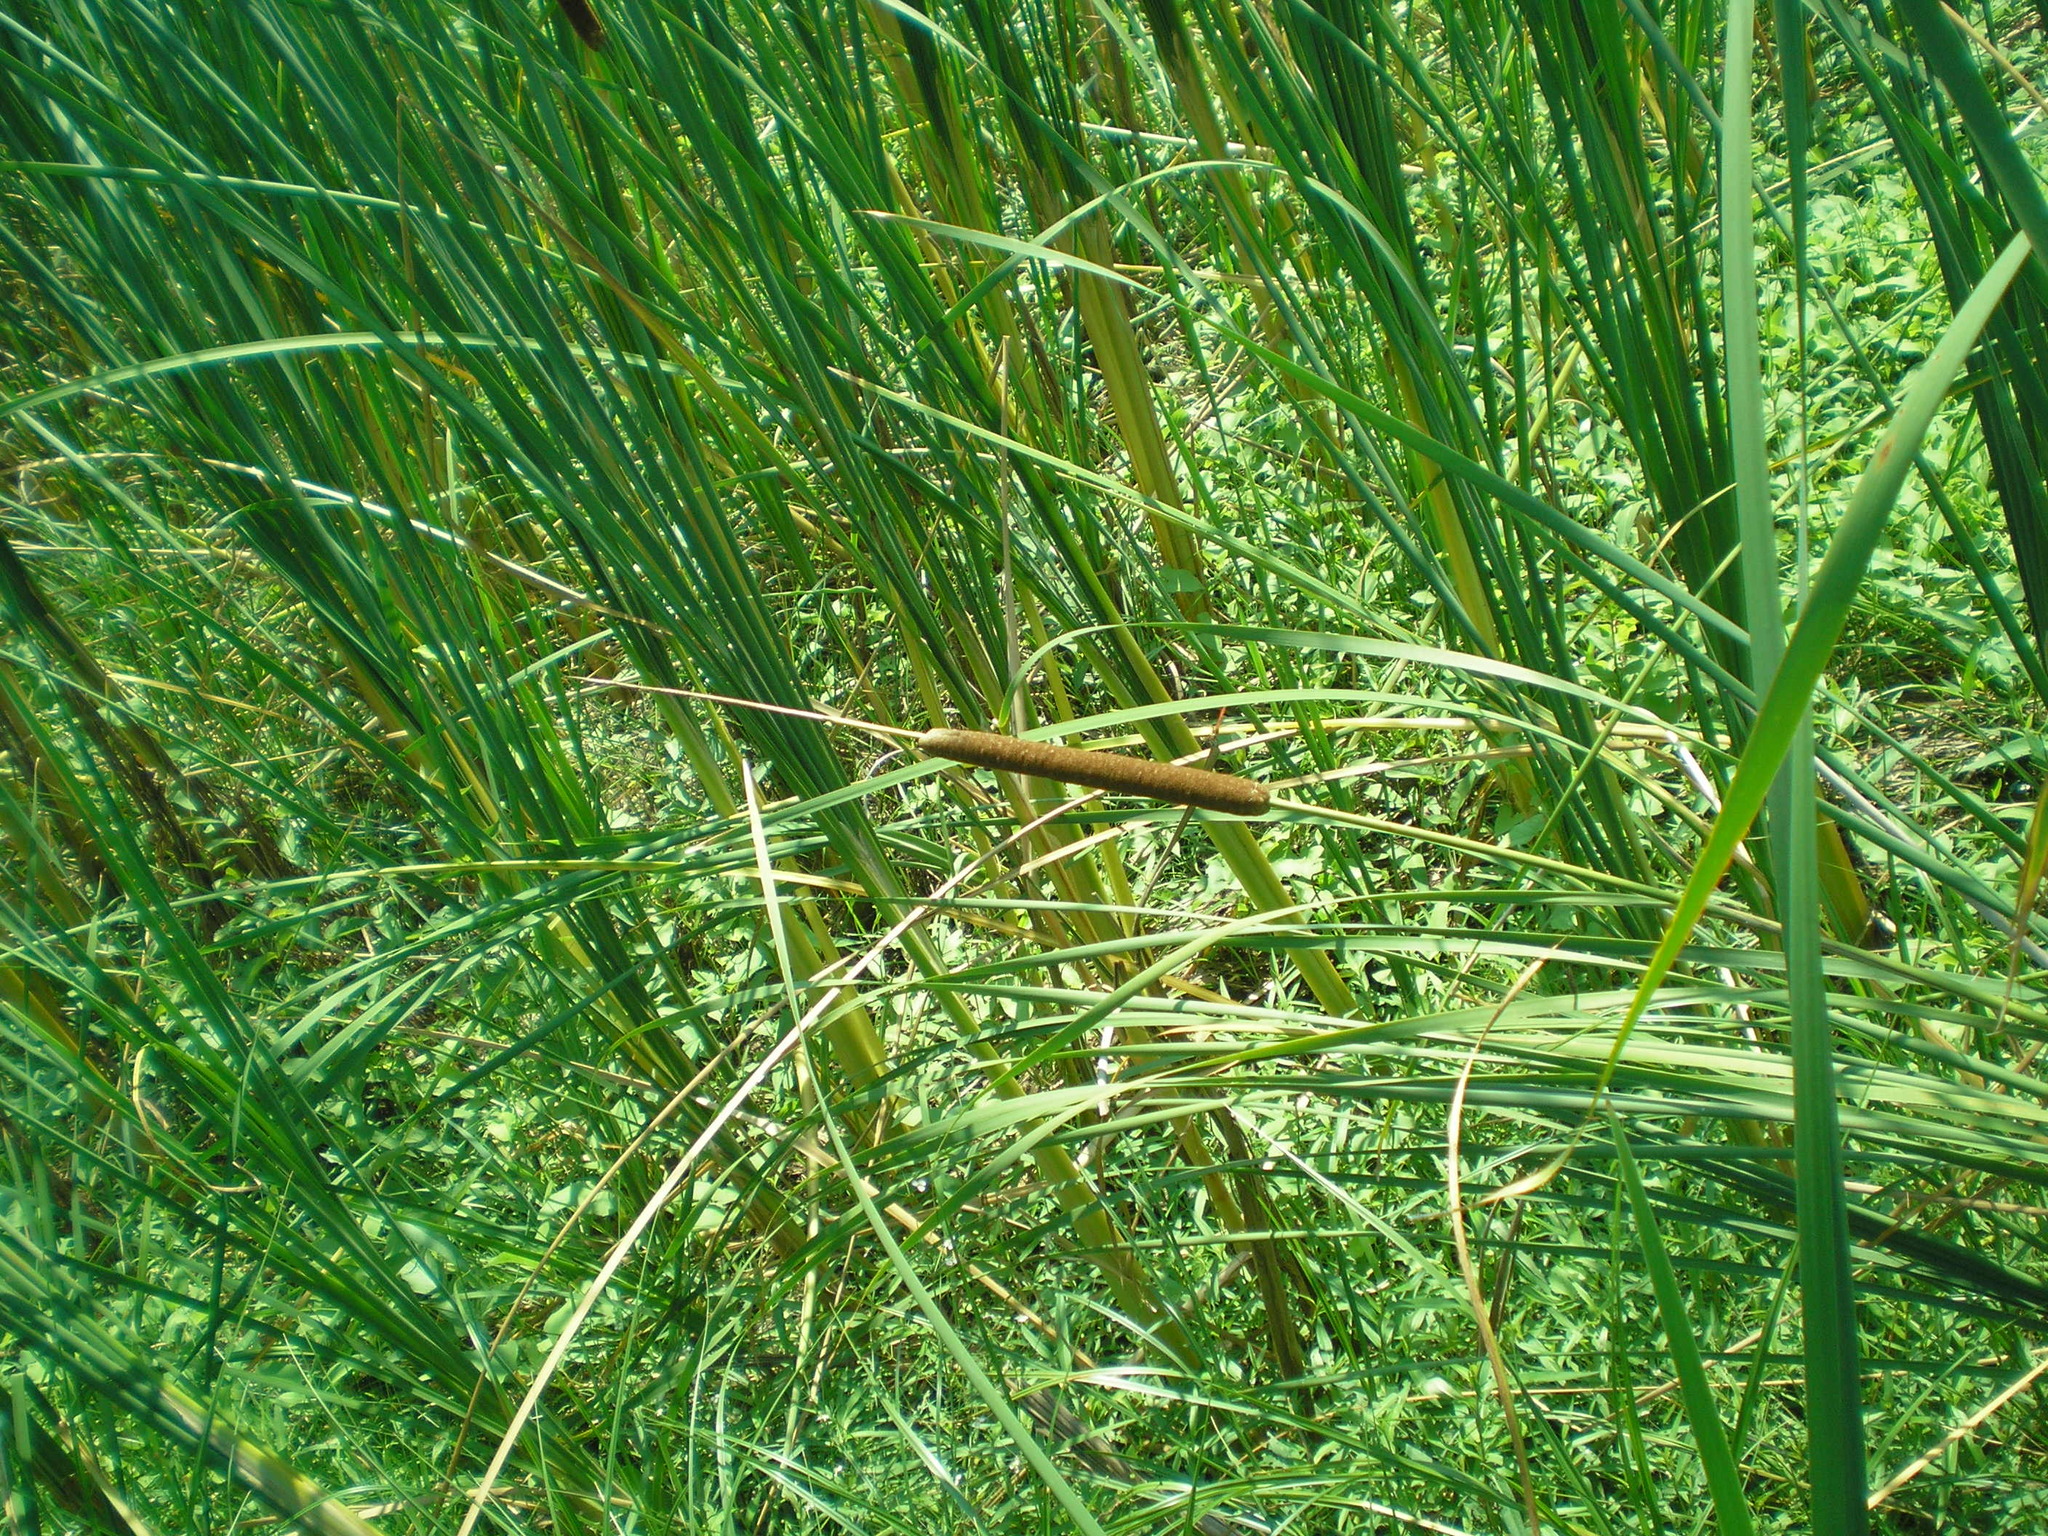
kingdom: Plantae
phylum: Tracheophyta
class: Liliopsida
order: Poales
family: Typhaceae
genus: Typha
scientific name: Typha angustifolia
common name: Lesser bulrush
